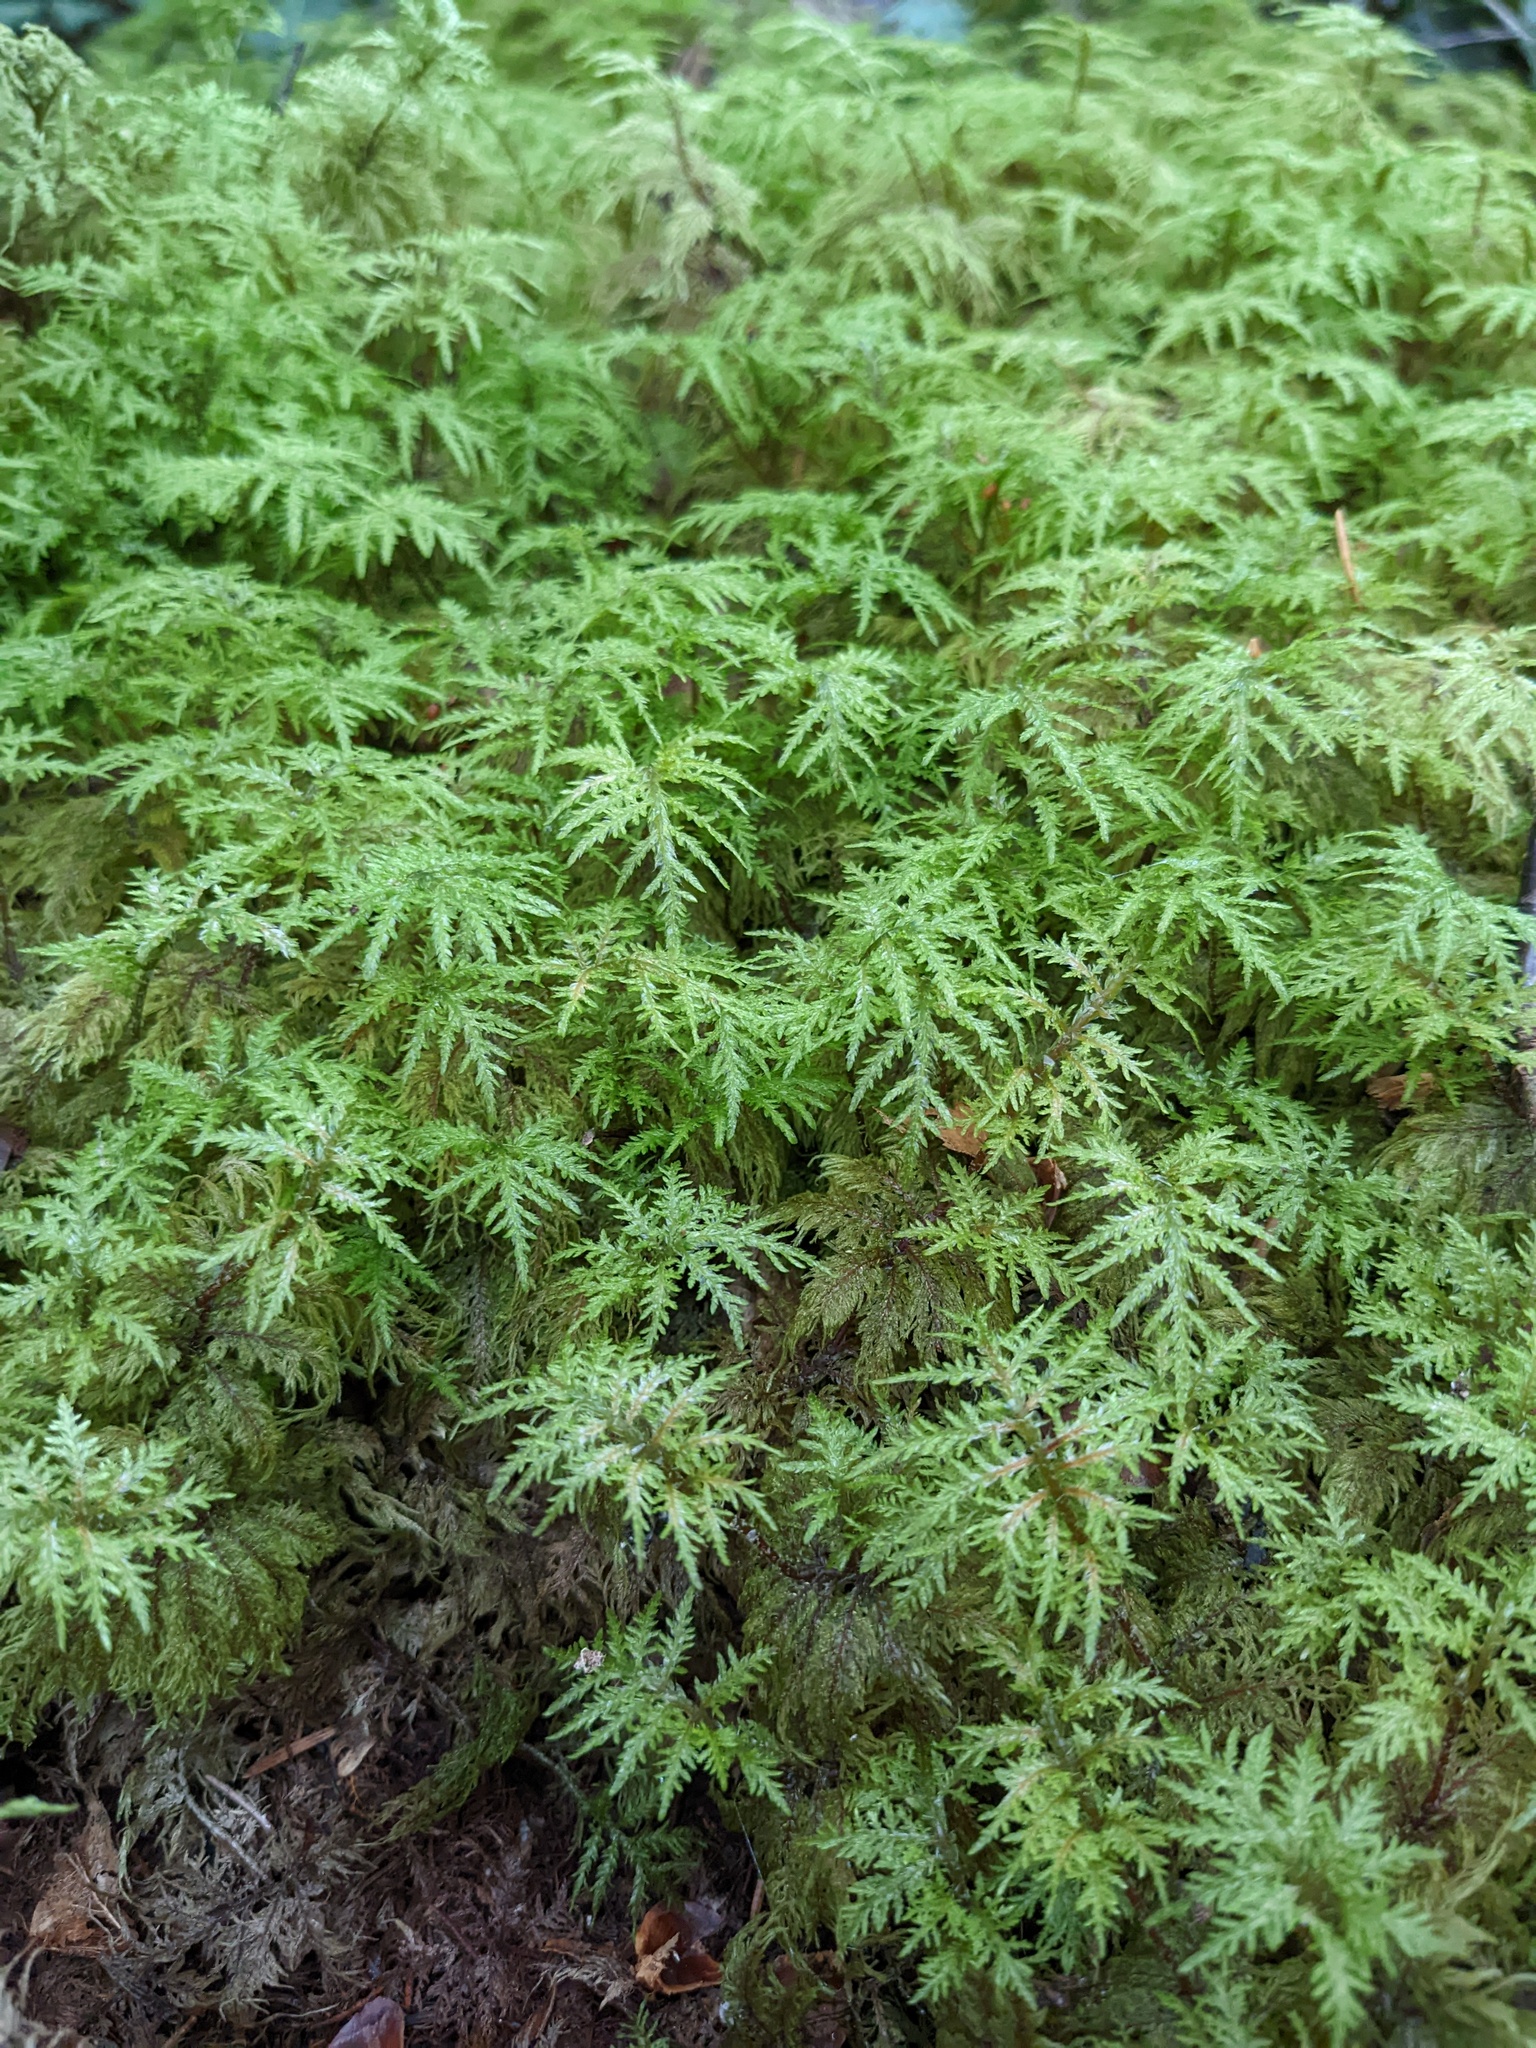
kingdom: Plantae
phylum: Bryophyta
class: Bryopsida
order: Hypnales
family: Hylocomiaceae
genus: Hylocomium
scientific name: Hylocomium splendens
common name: Stairstep moss
